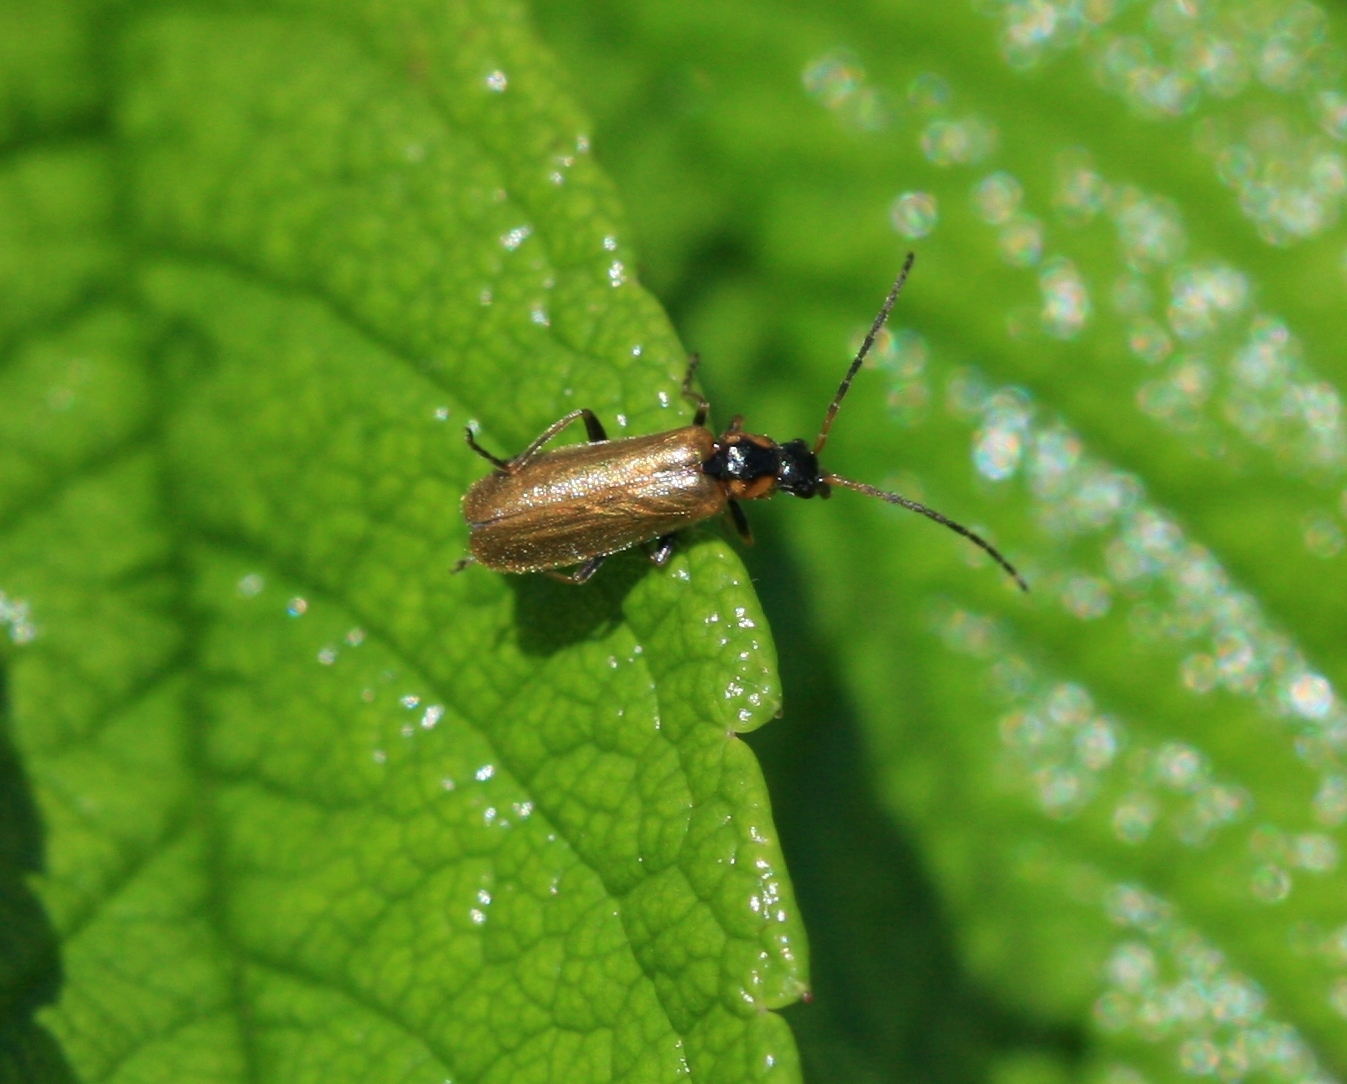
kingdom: Animalia
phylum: Arthropoda
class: Insecta
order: Coleoptera
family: Cantharidae
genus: Rhagonycha
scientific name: Rhagonycha nigriventris
